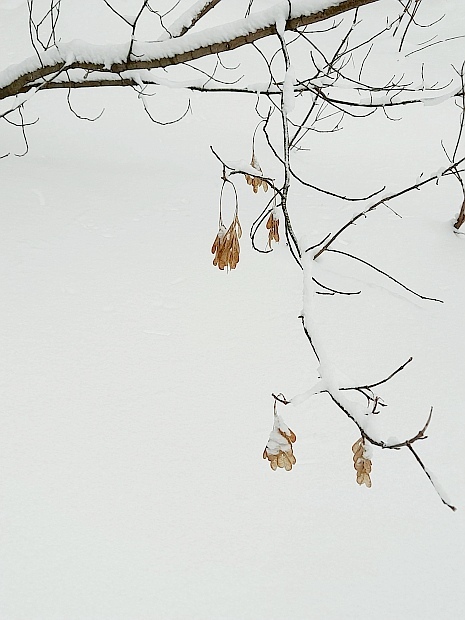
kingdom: Plantae
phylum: Tracheophyta
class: Magnoliopsida
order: Sapindales
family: Sapindaceae
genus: Acer
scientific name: Acer negundo
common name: Ashleaf maple
